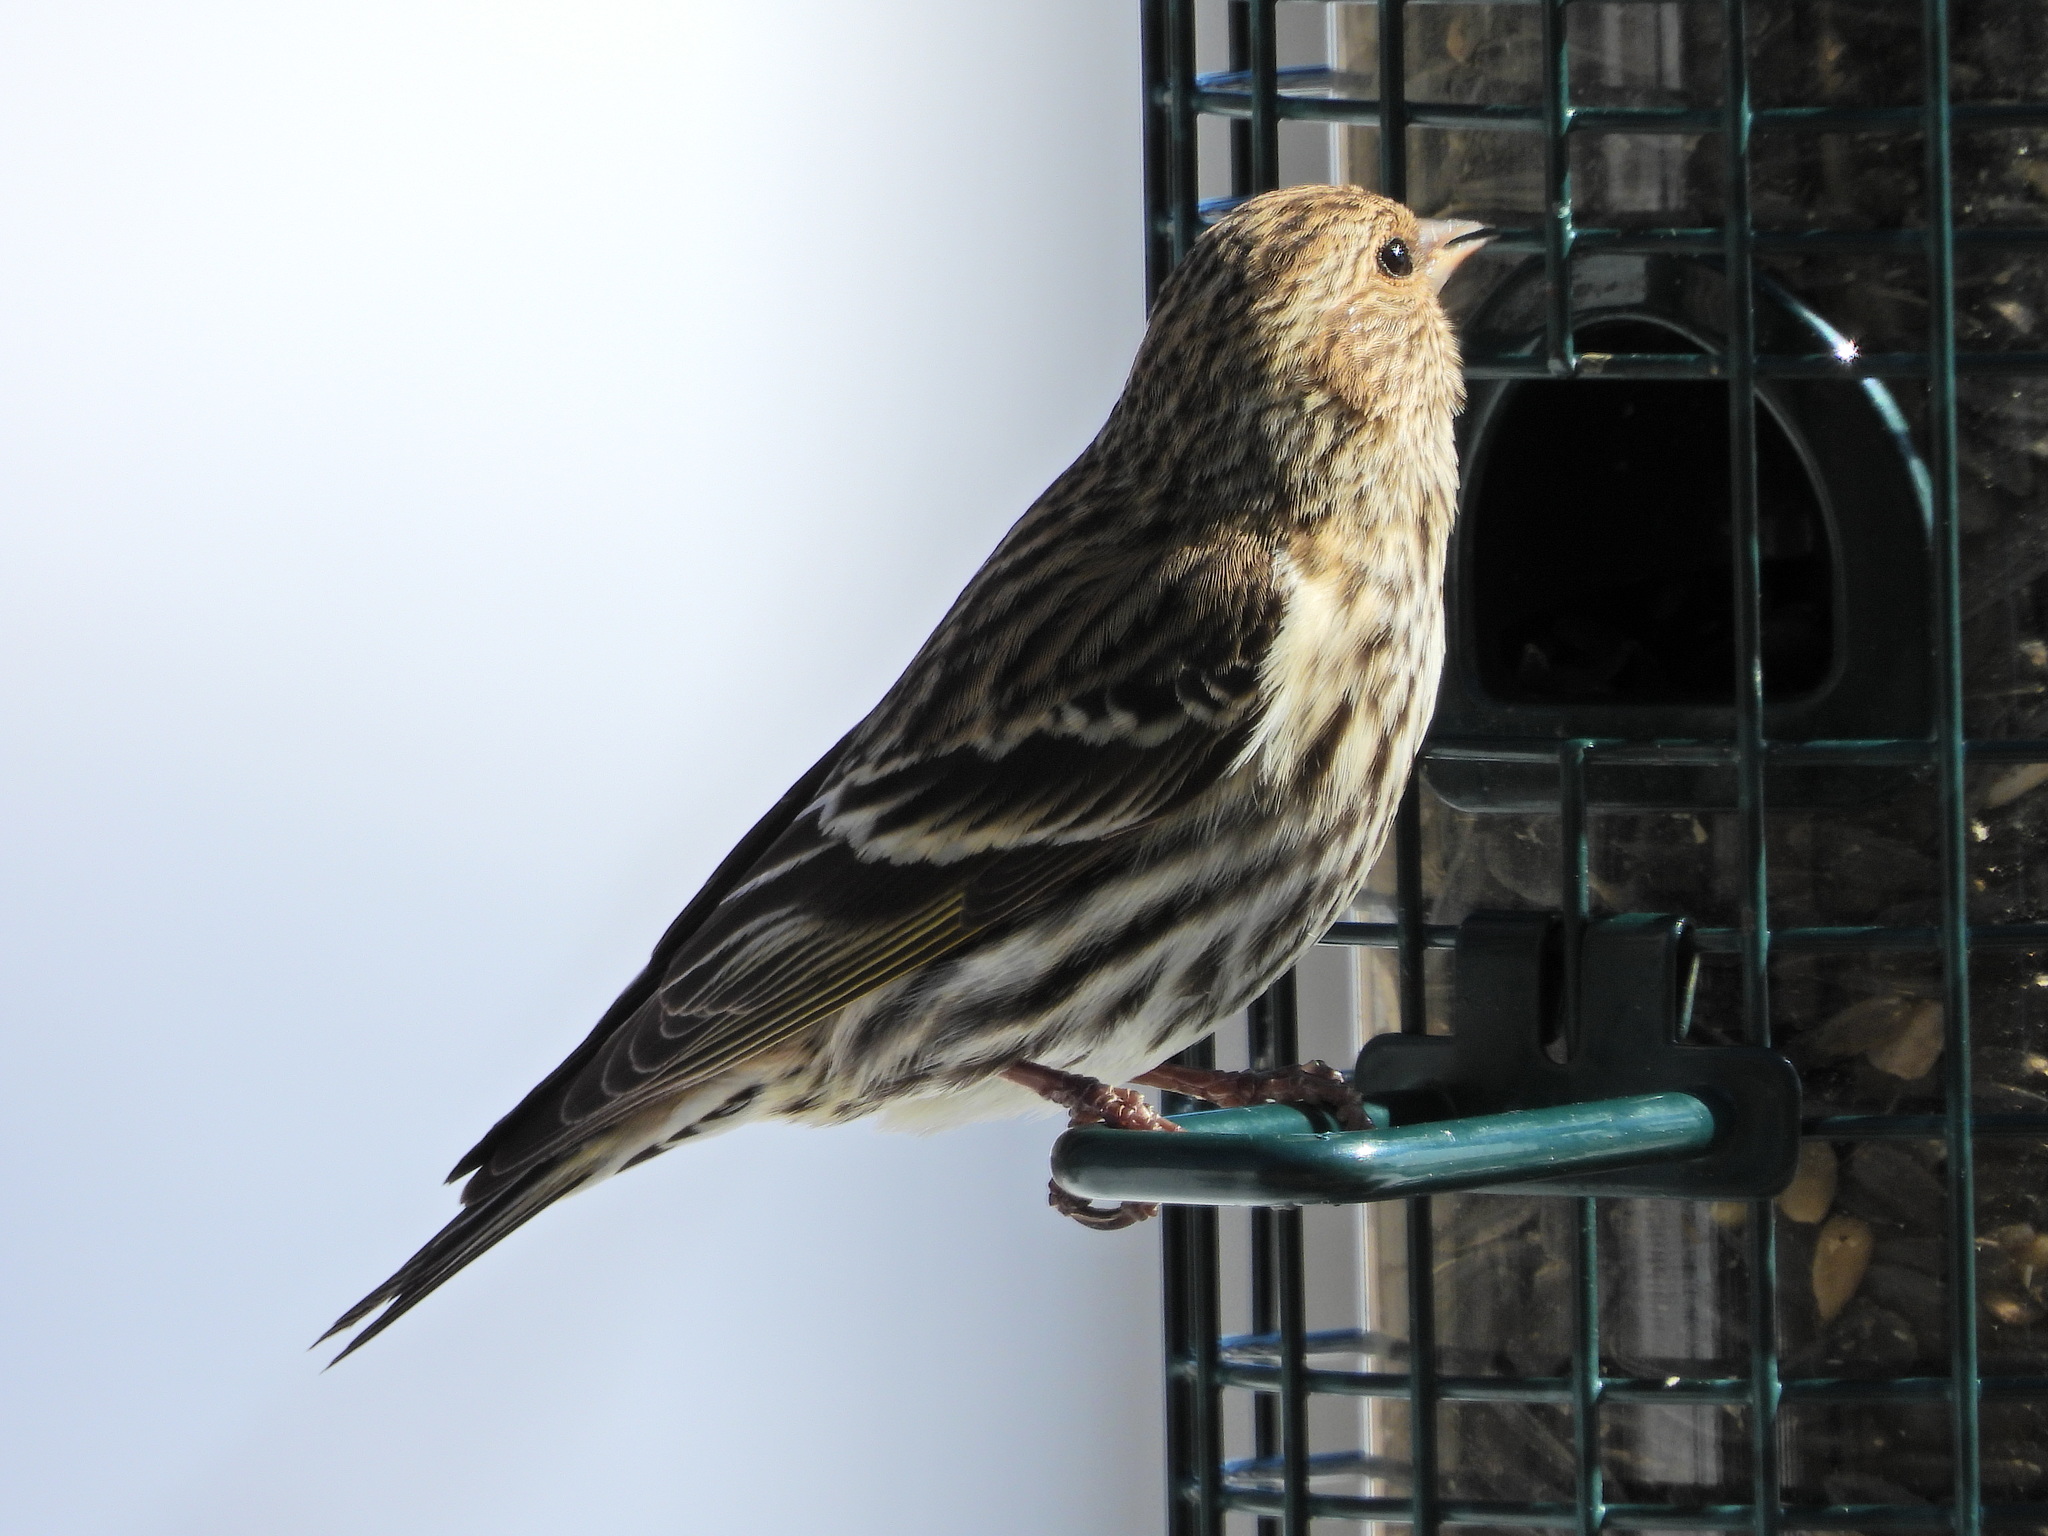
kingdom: Animalia
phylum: Chordata
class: Aves
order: Passeriformes
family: Fringillidae
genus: Spinus
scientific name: Spinus pinus
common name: Pine siskin
